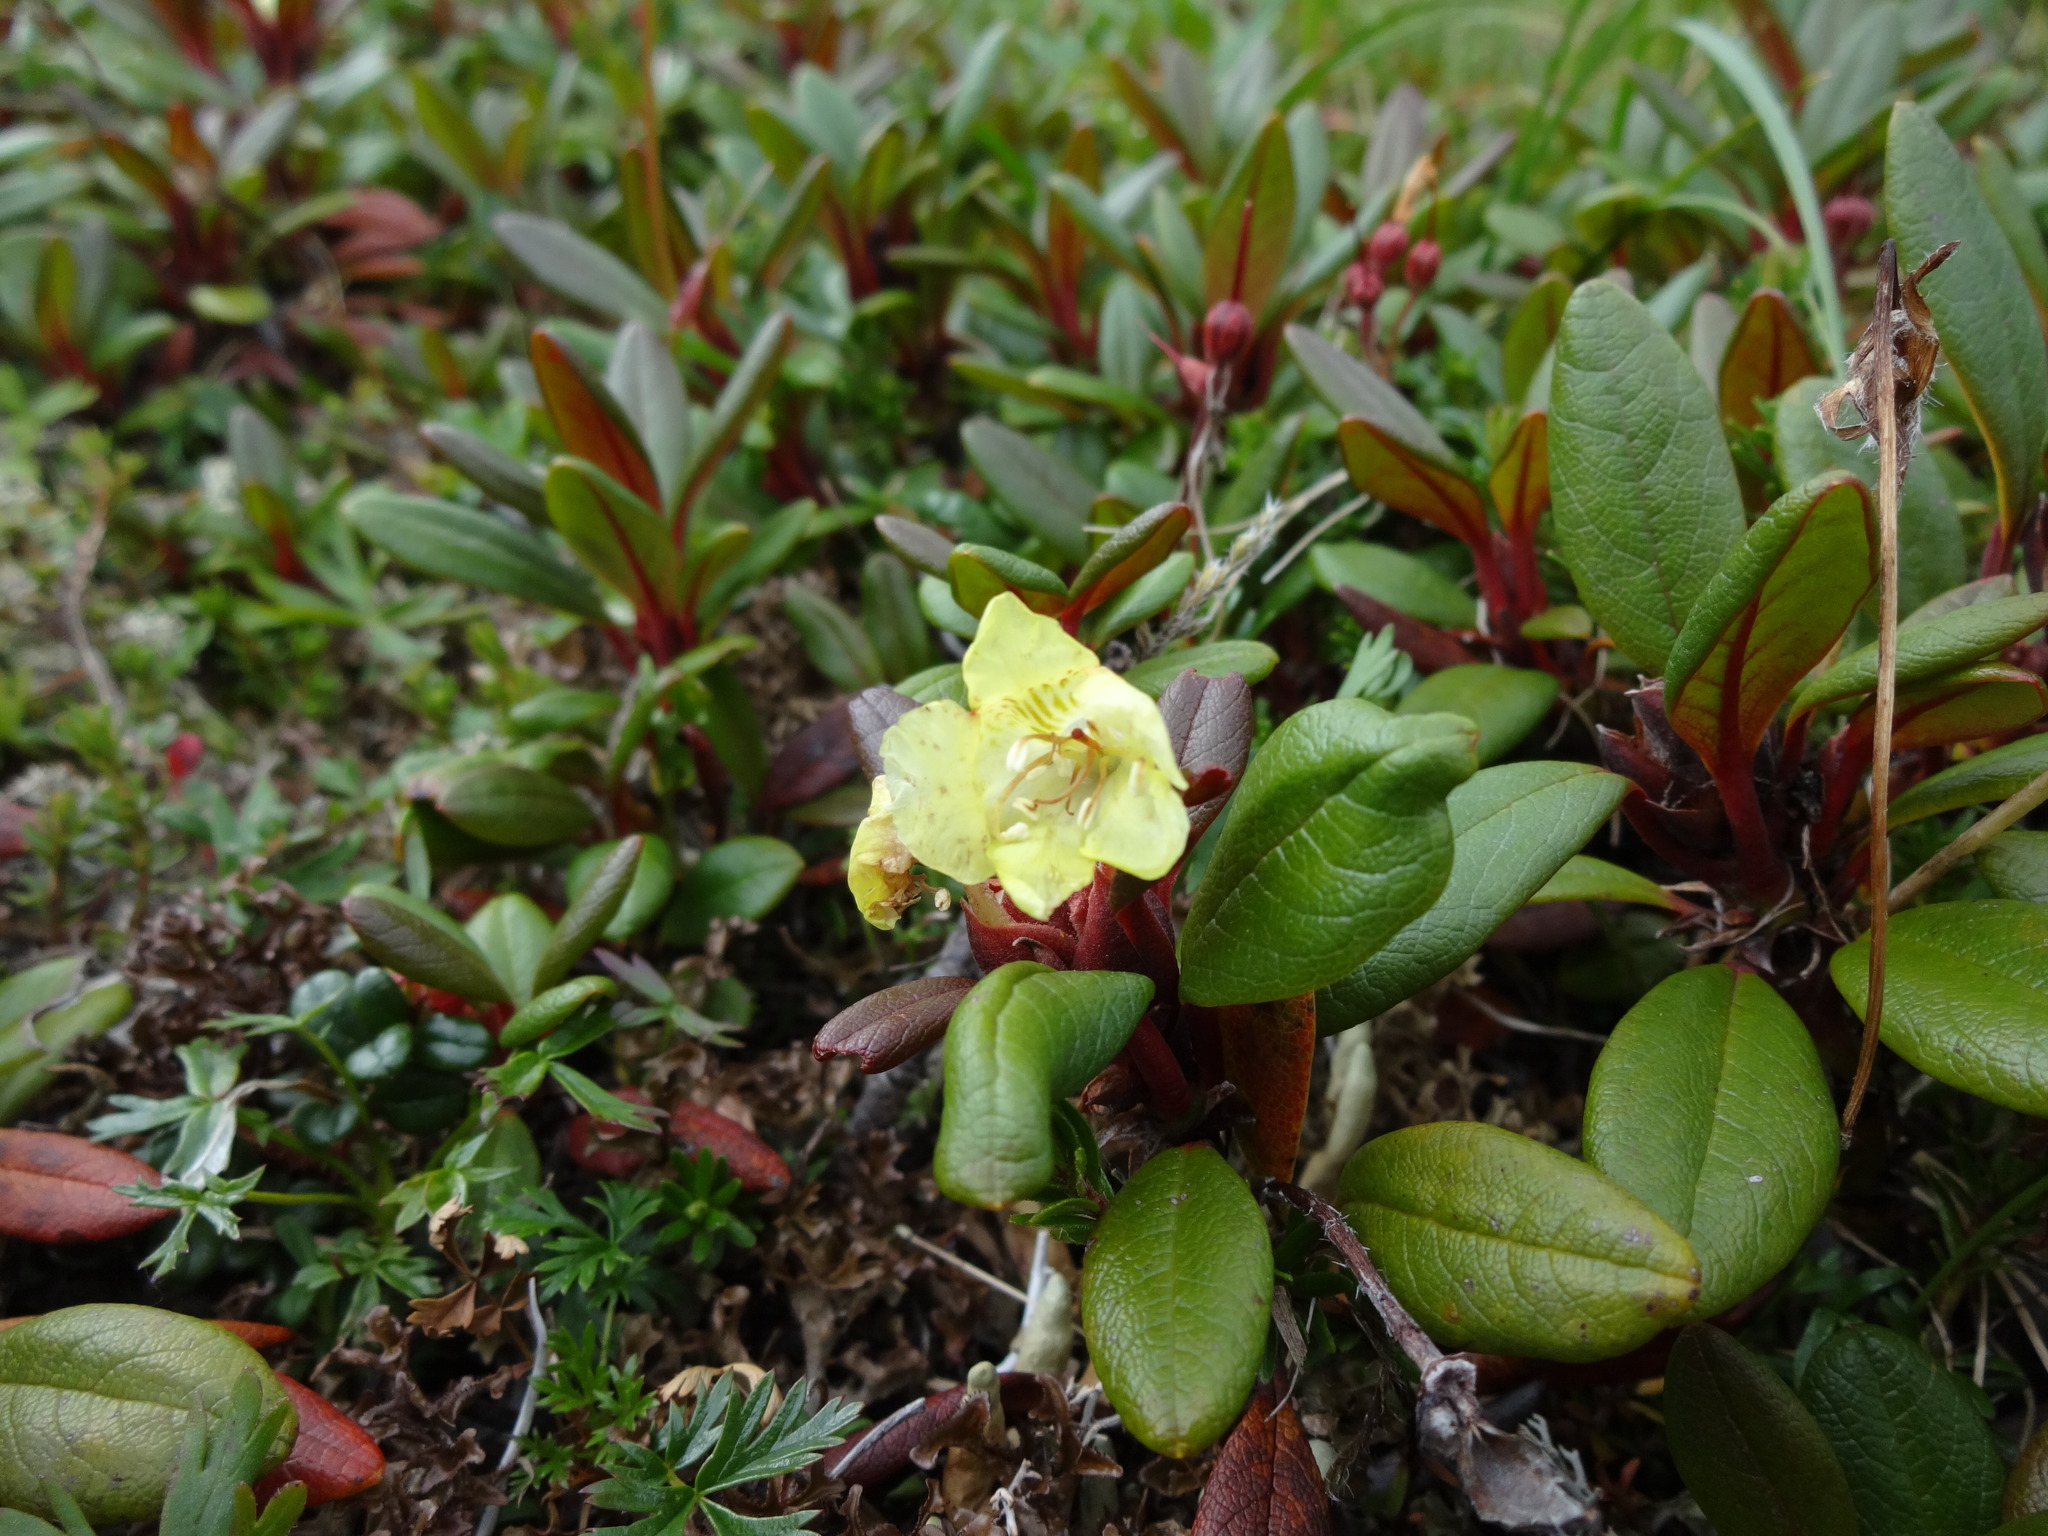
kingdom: Plantae
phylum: Tracheophyta
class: Magnoliopsida
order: Ericales
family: Ericaceae
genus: Rhododendron
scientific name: Rhododendron aureum
